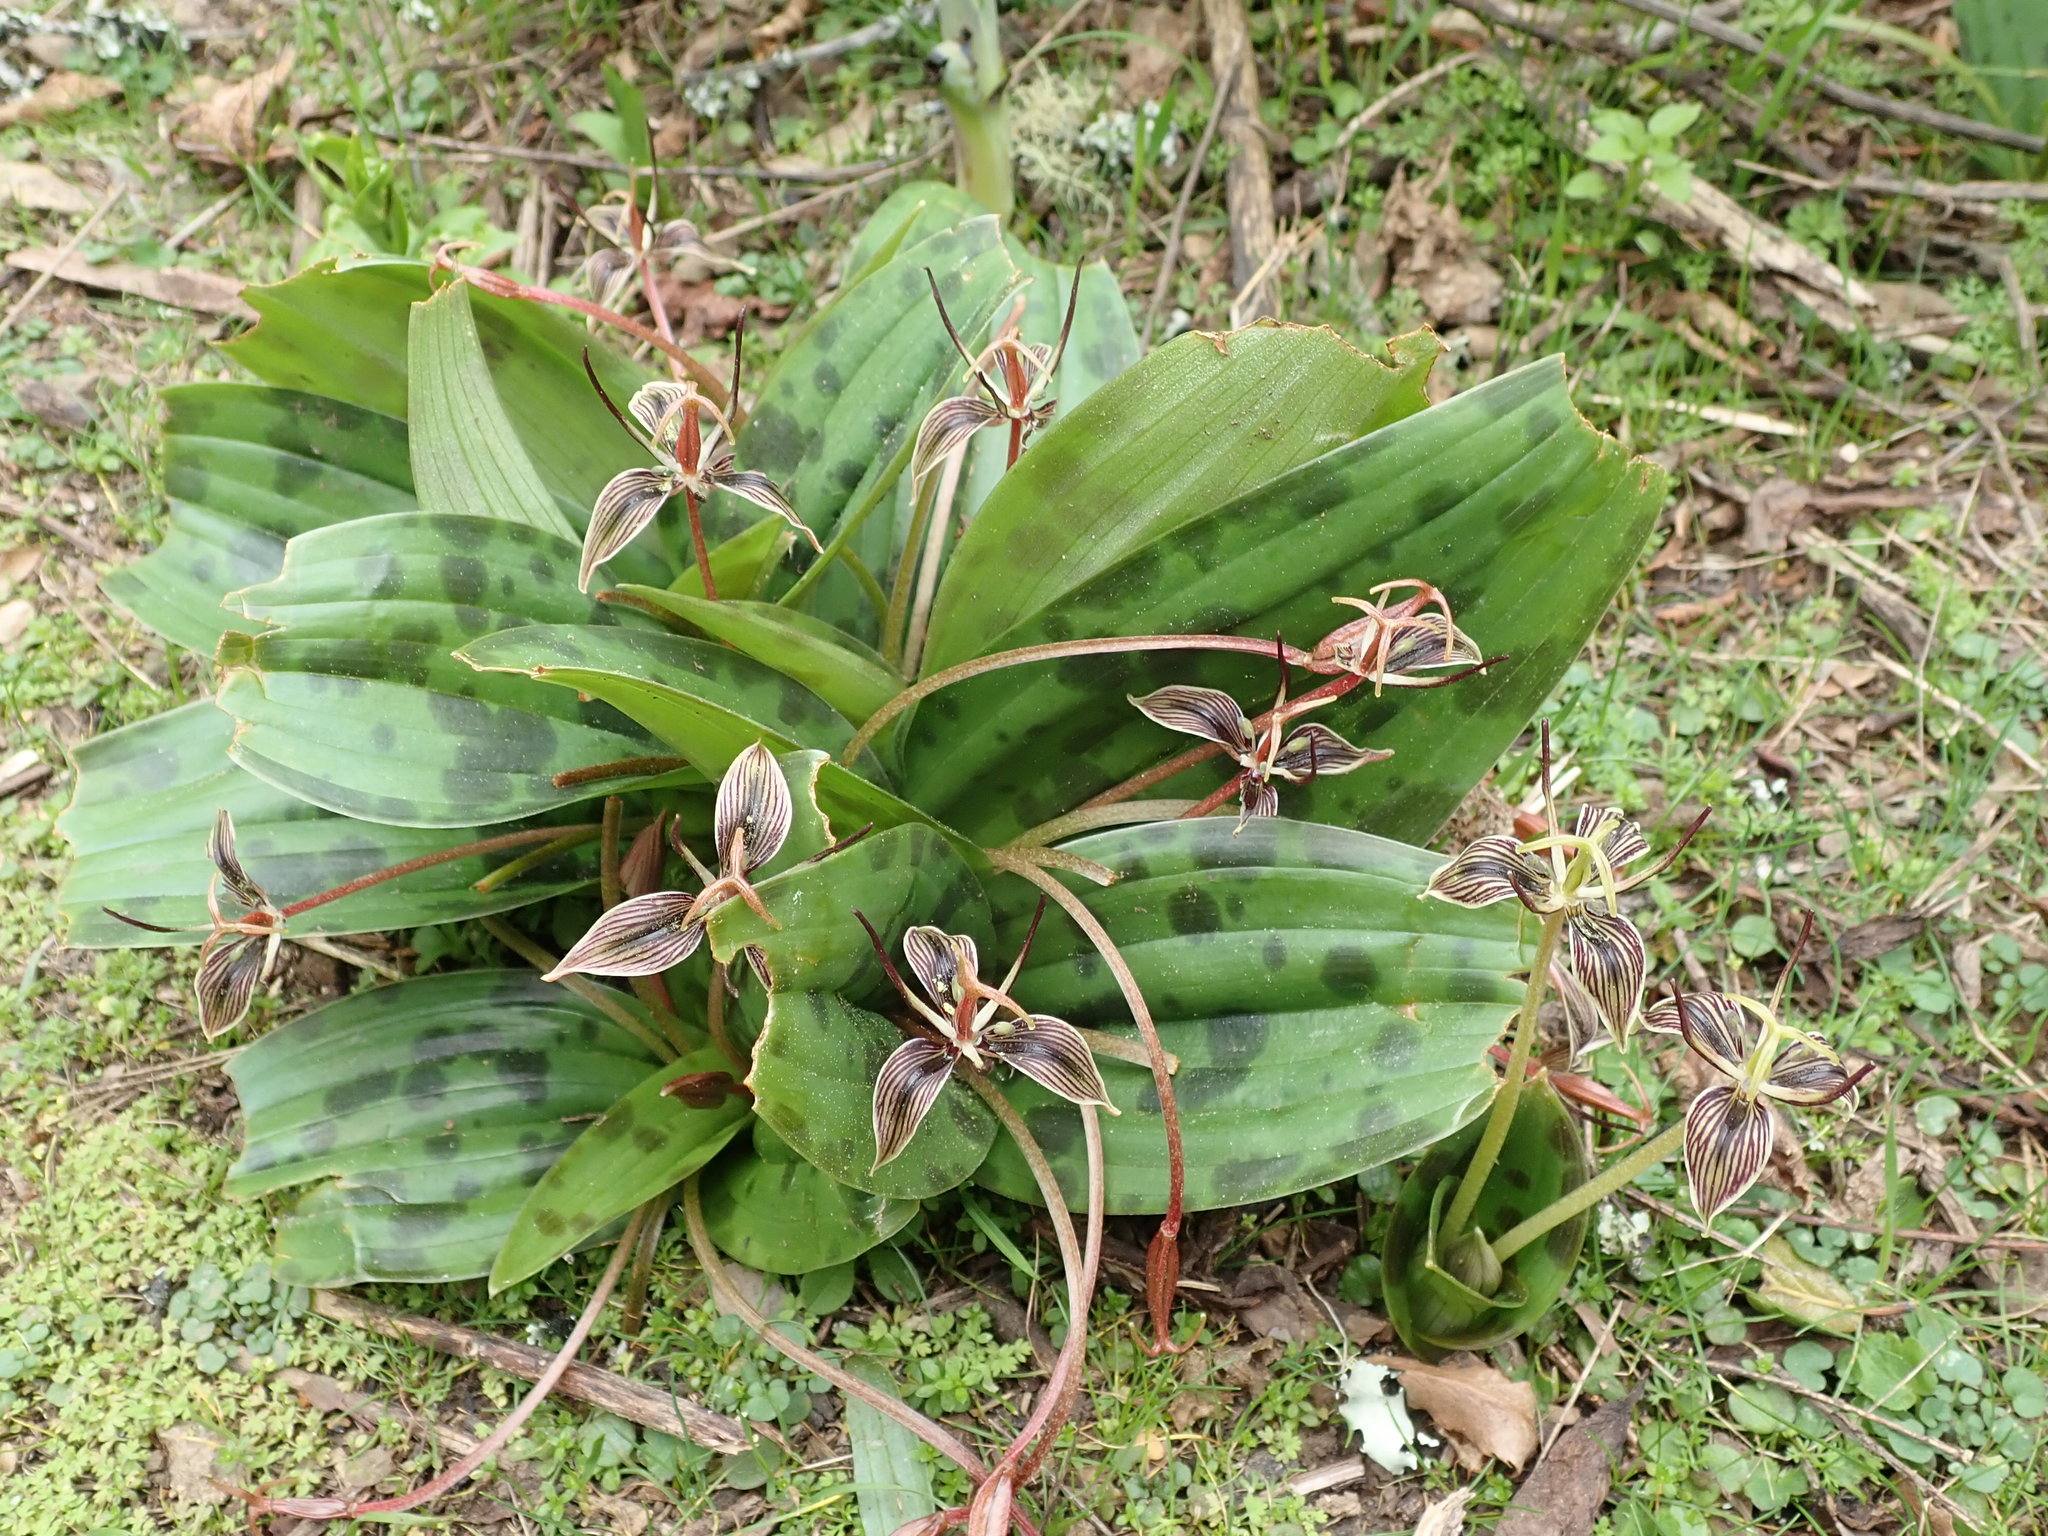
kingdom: Plantae
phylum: Tracheophyta
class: Liliopsida
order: Liliales
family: Liliaceae
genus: Scoliopus
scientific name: Scoliopus bigelovii
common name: Foetid adder's-tongue
